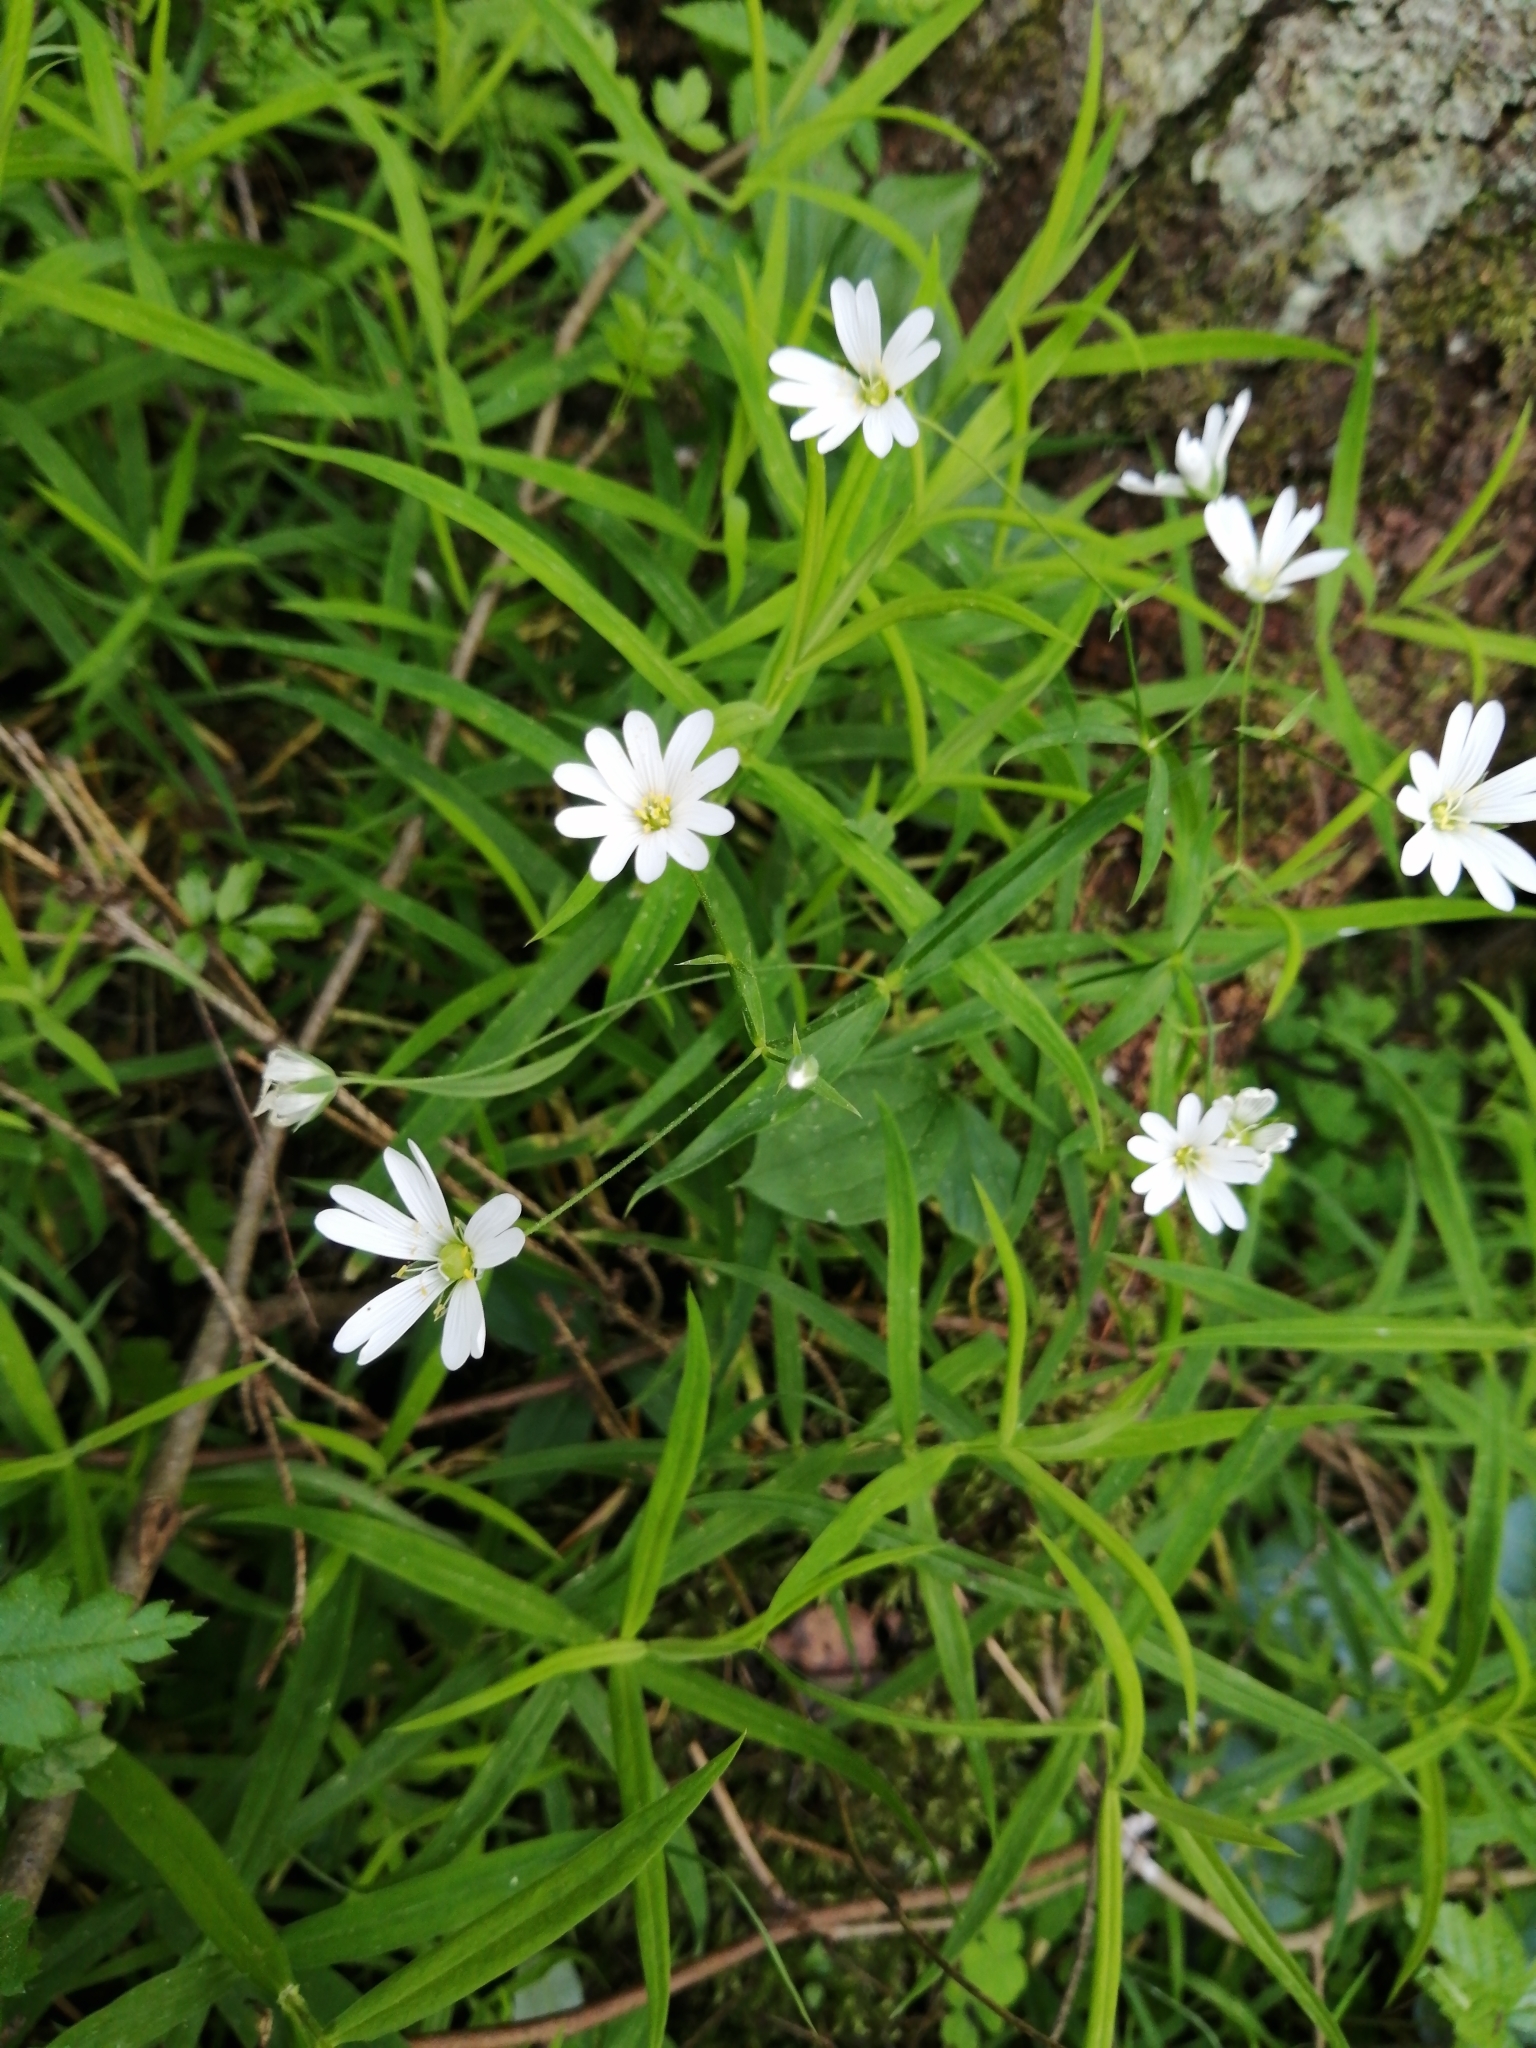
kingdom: Plantae
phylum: Tracheophyta
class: Magnoliopsida
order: Caryophyllales
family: Caryophyllaceae
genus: Rabelera
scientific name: Rabelera holostea
